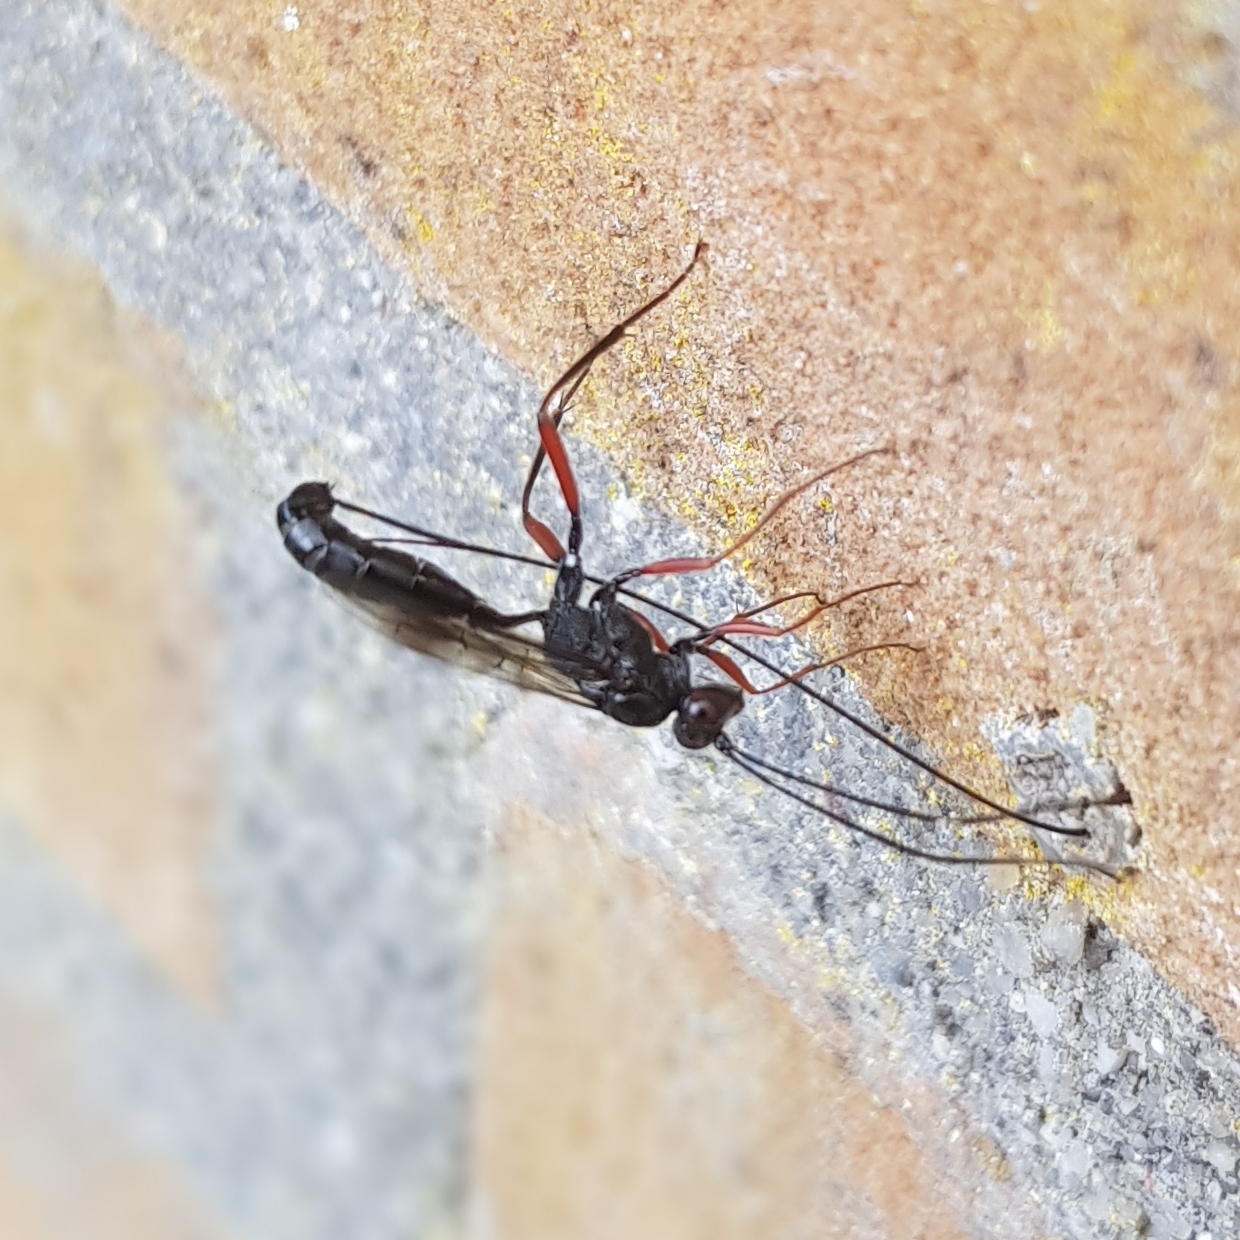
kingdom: Animalia
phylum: Arthropoda
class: Insecta
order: Hymenoptera
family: Ichneumonidae
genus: Stenarella
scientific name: Stenarella domator
